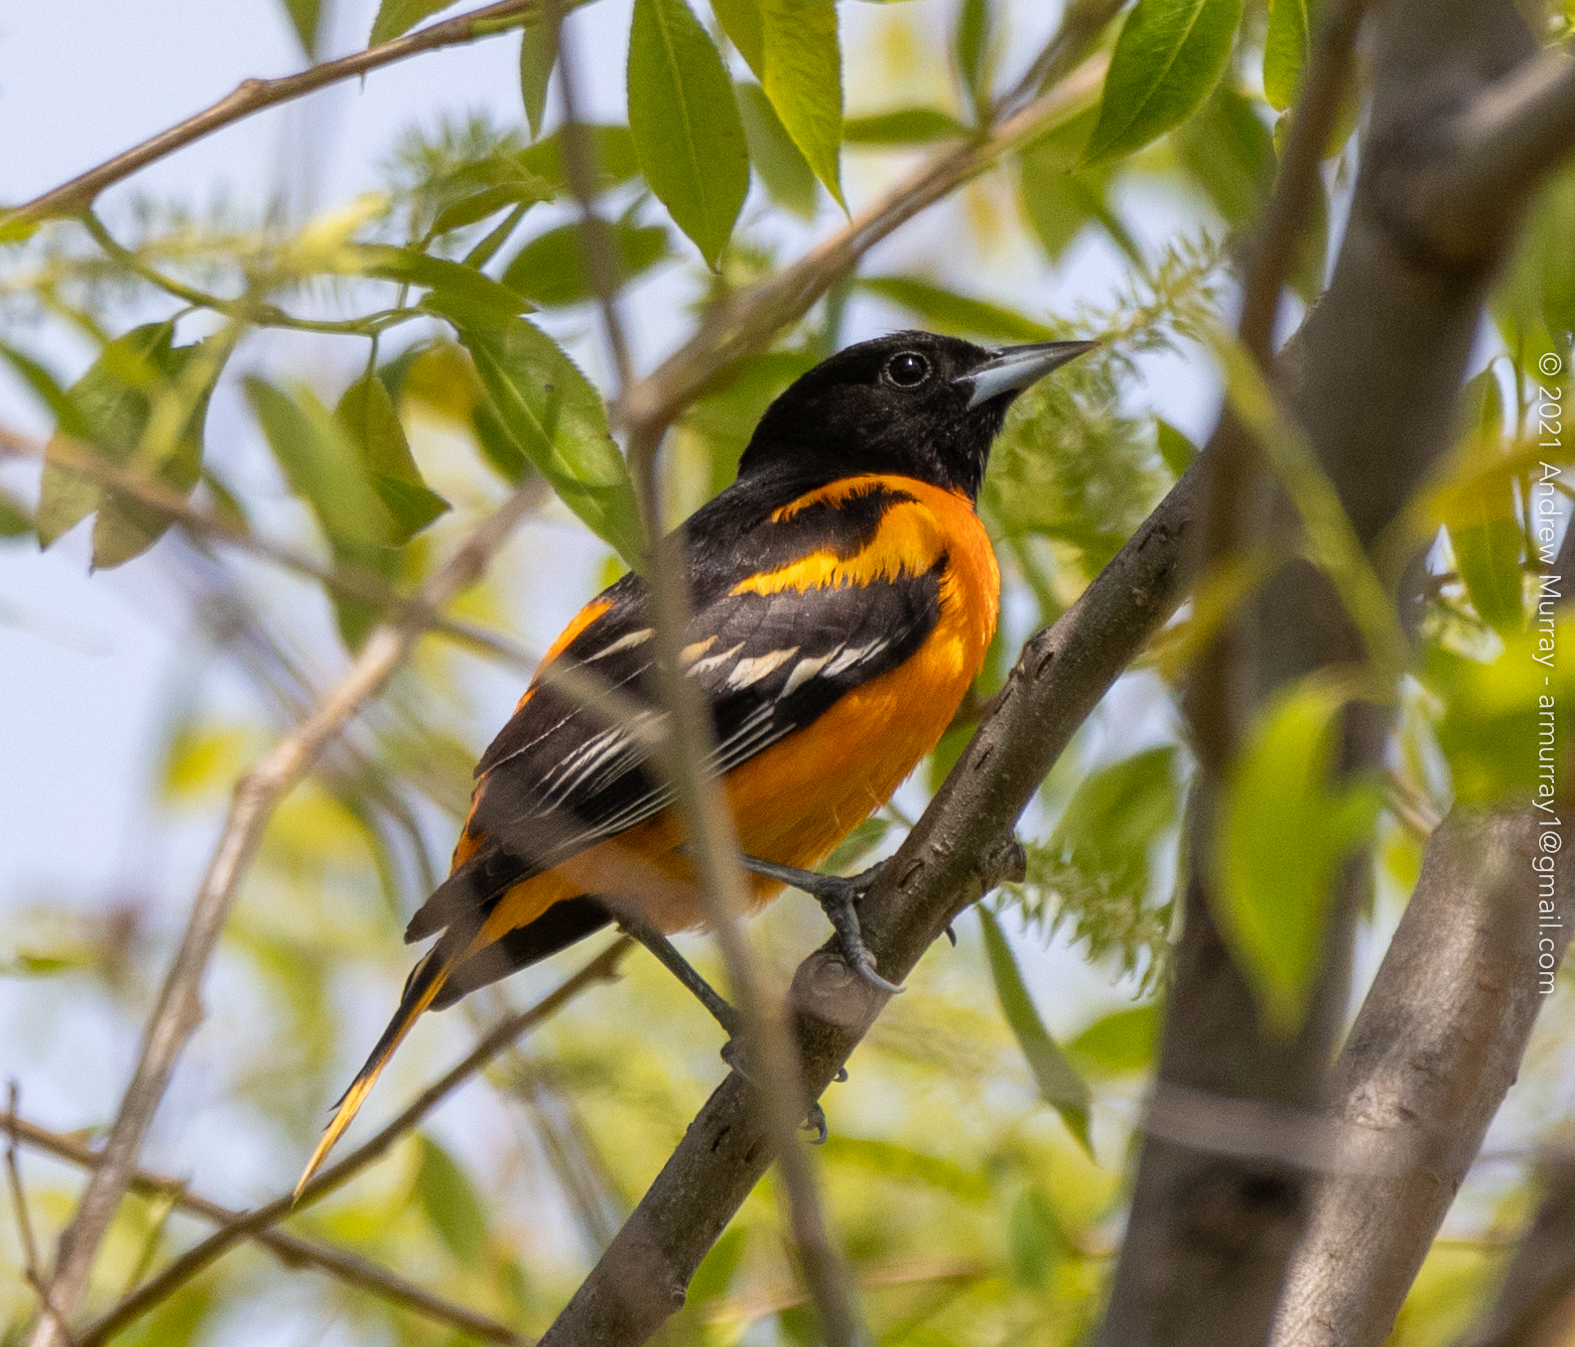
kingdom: Animalia
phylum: Chordata
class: Aves
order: Passeriformes
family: Icteridae
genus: Icterus
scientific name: Icterus galbula
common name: Baltimore oriole
